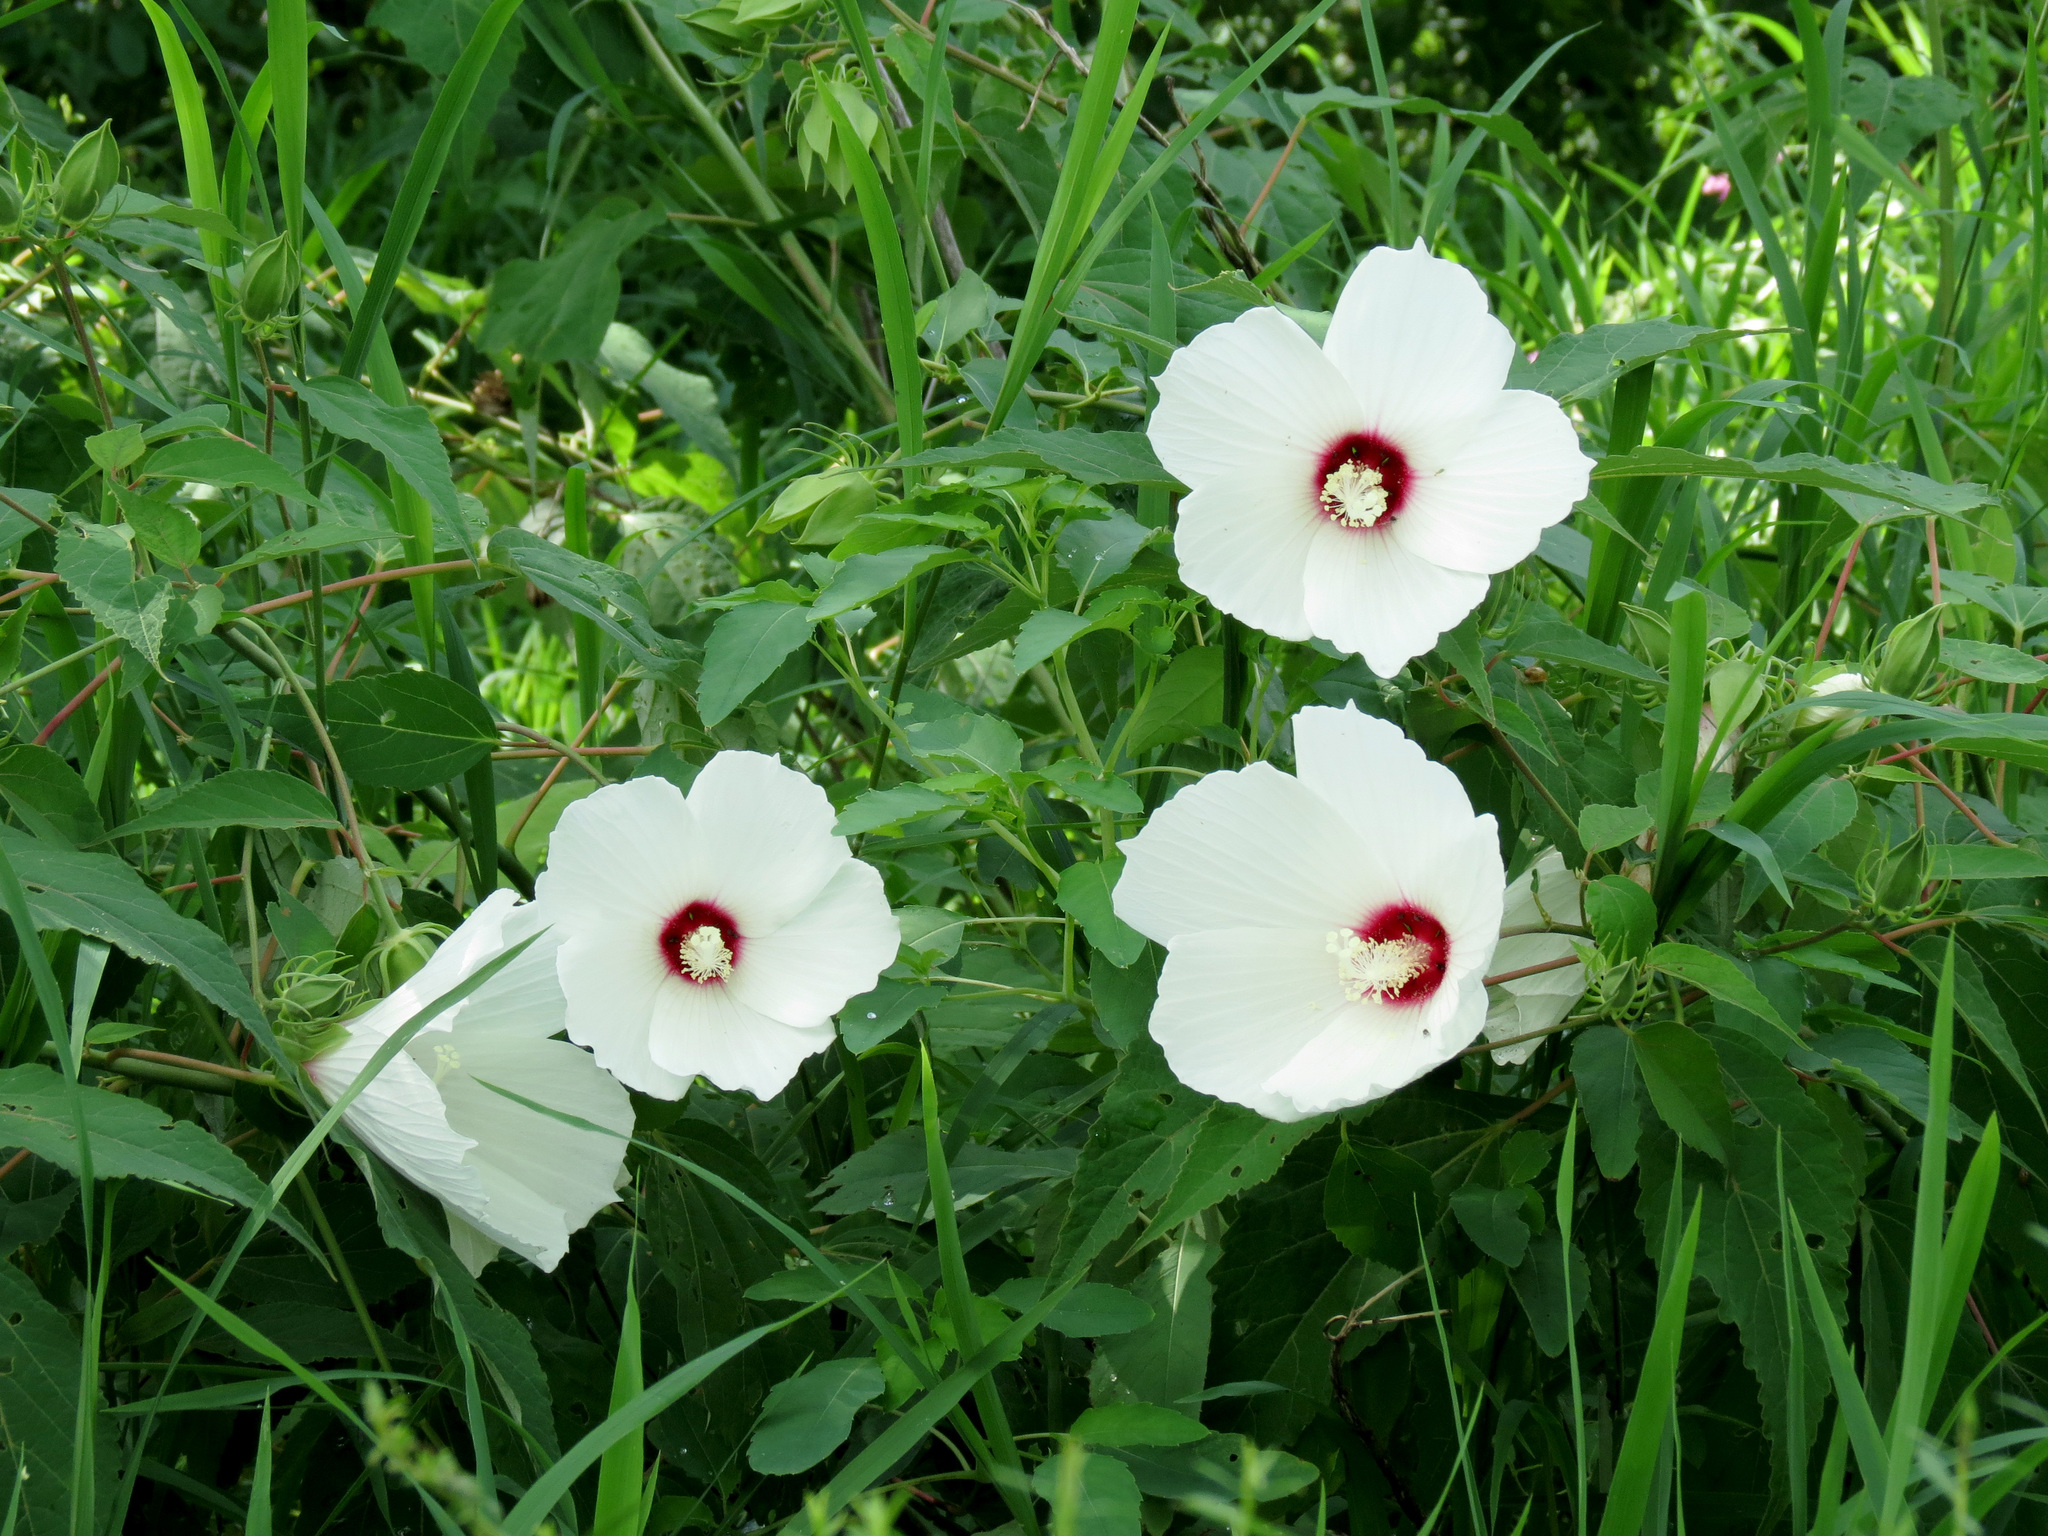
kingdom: Plantae
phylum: Tracheophyta
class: Magnoliopsida
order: Malvales
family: Malvaceae
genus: Hibiscus
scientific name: Hibiscus moscheutos
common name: Common rose-mallow
